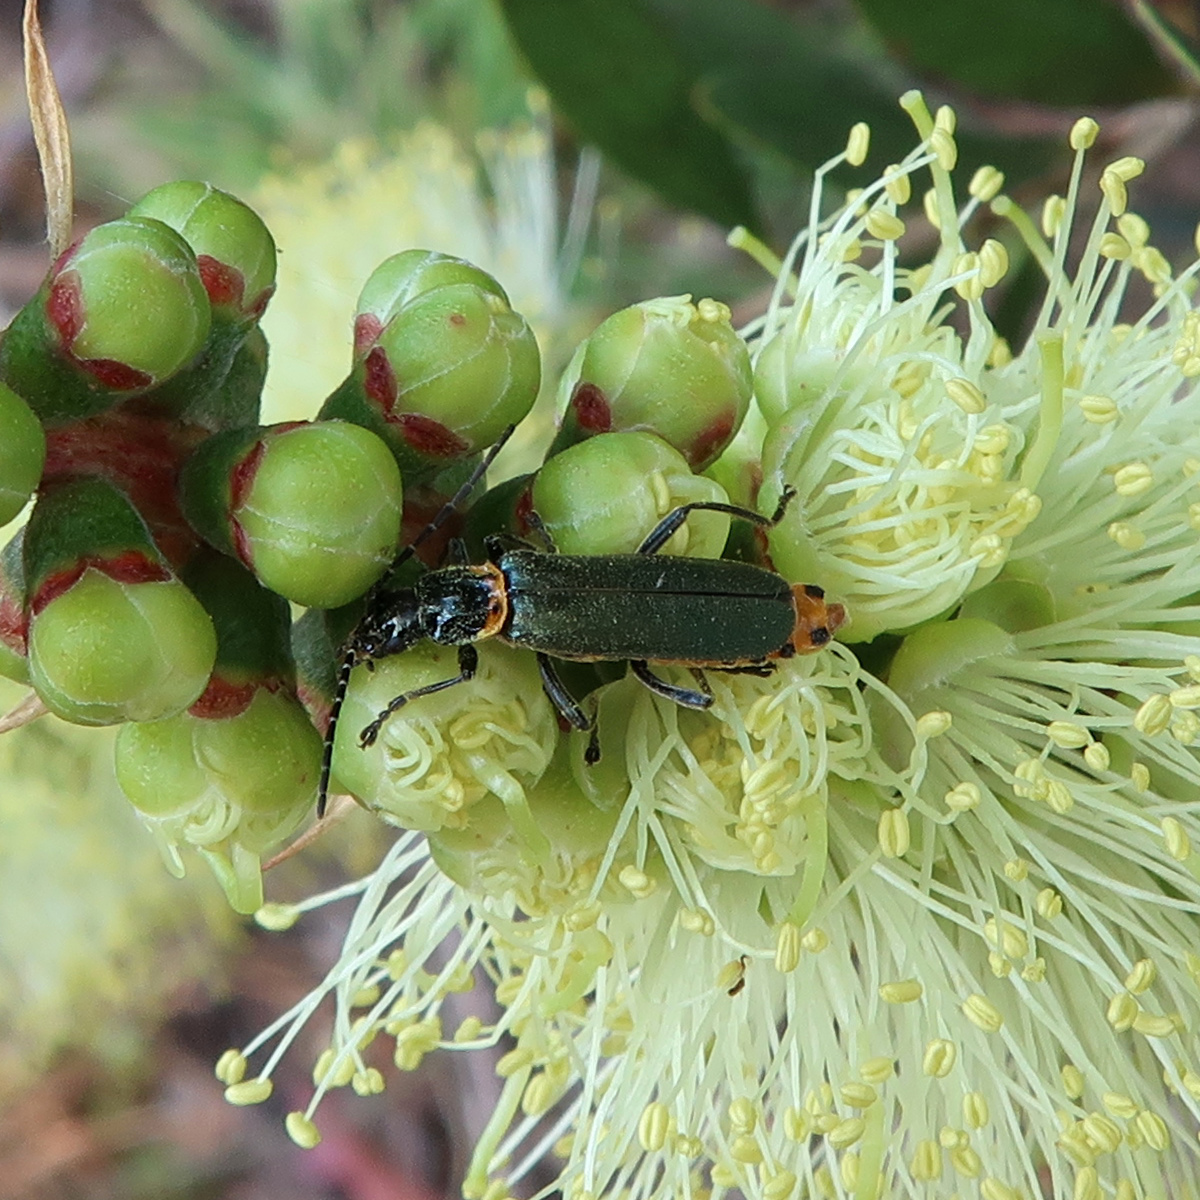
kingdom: Animalia
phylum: Arthropoda
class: Insecta
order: Coleoptera
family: Cantharidae
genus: Chauliognathus
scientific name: Chauliognathus
